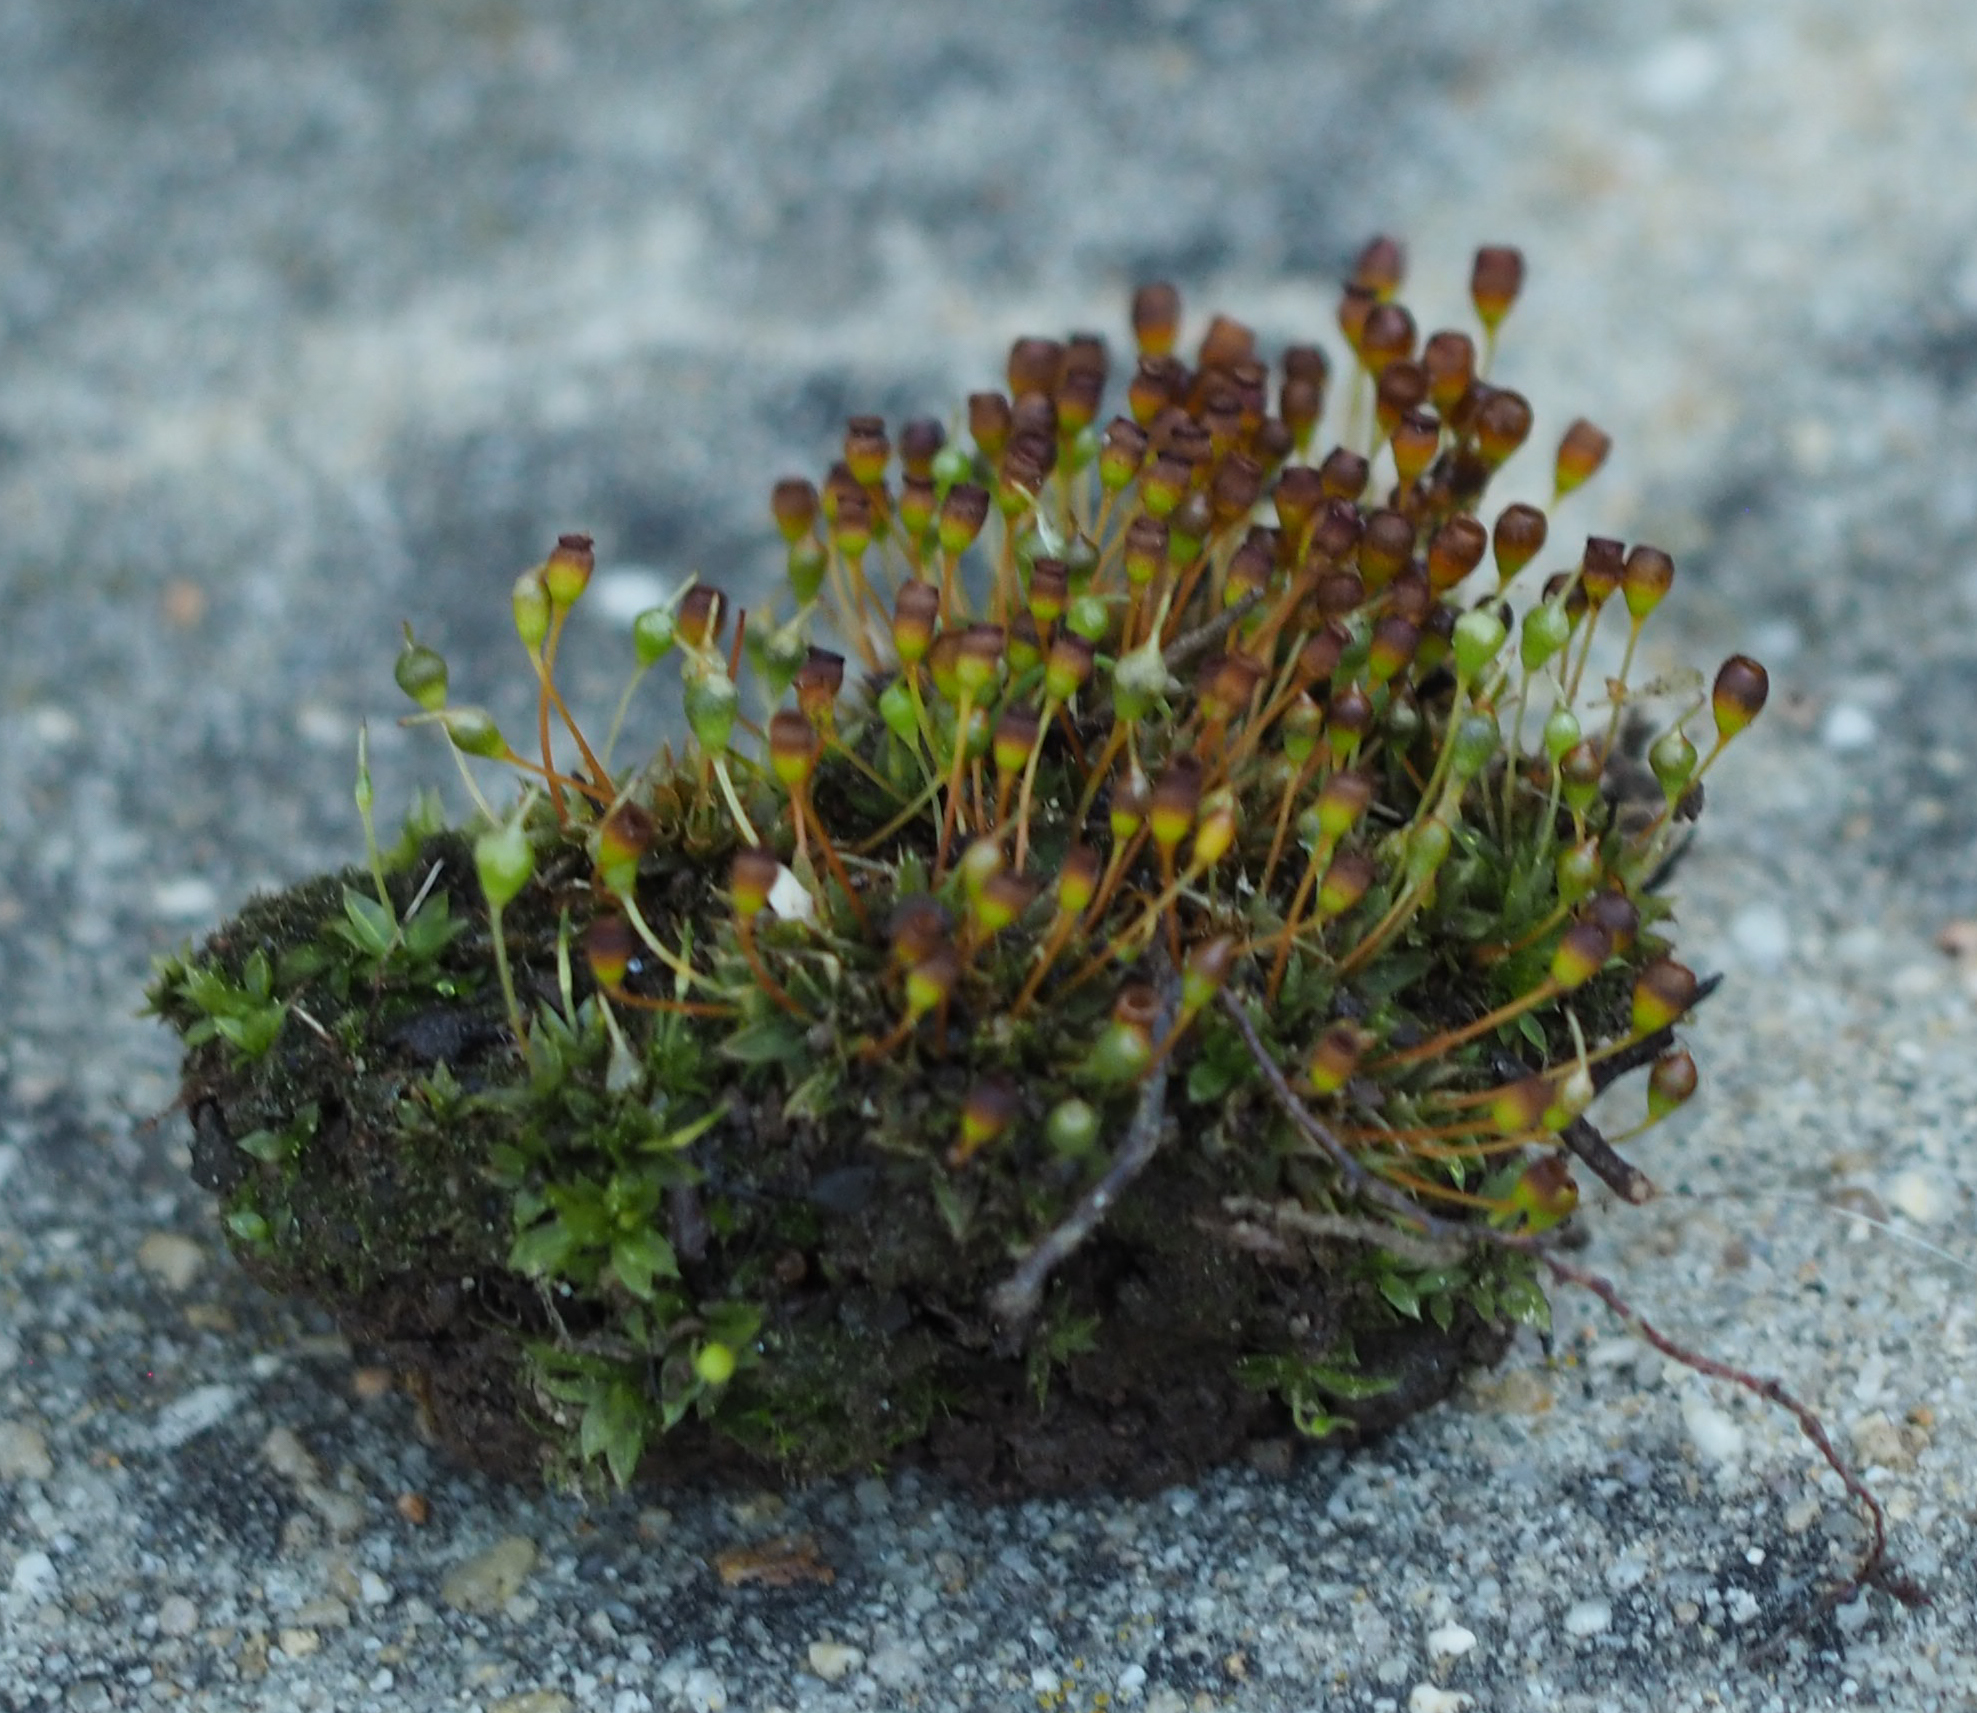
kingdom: Plantae
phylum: Bryophyta
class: Bryopsida
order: Funariales
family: Funariaceae
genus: Physcomitrium
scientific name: Physcomitrium pyriforme
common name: Common bladder-moss
